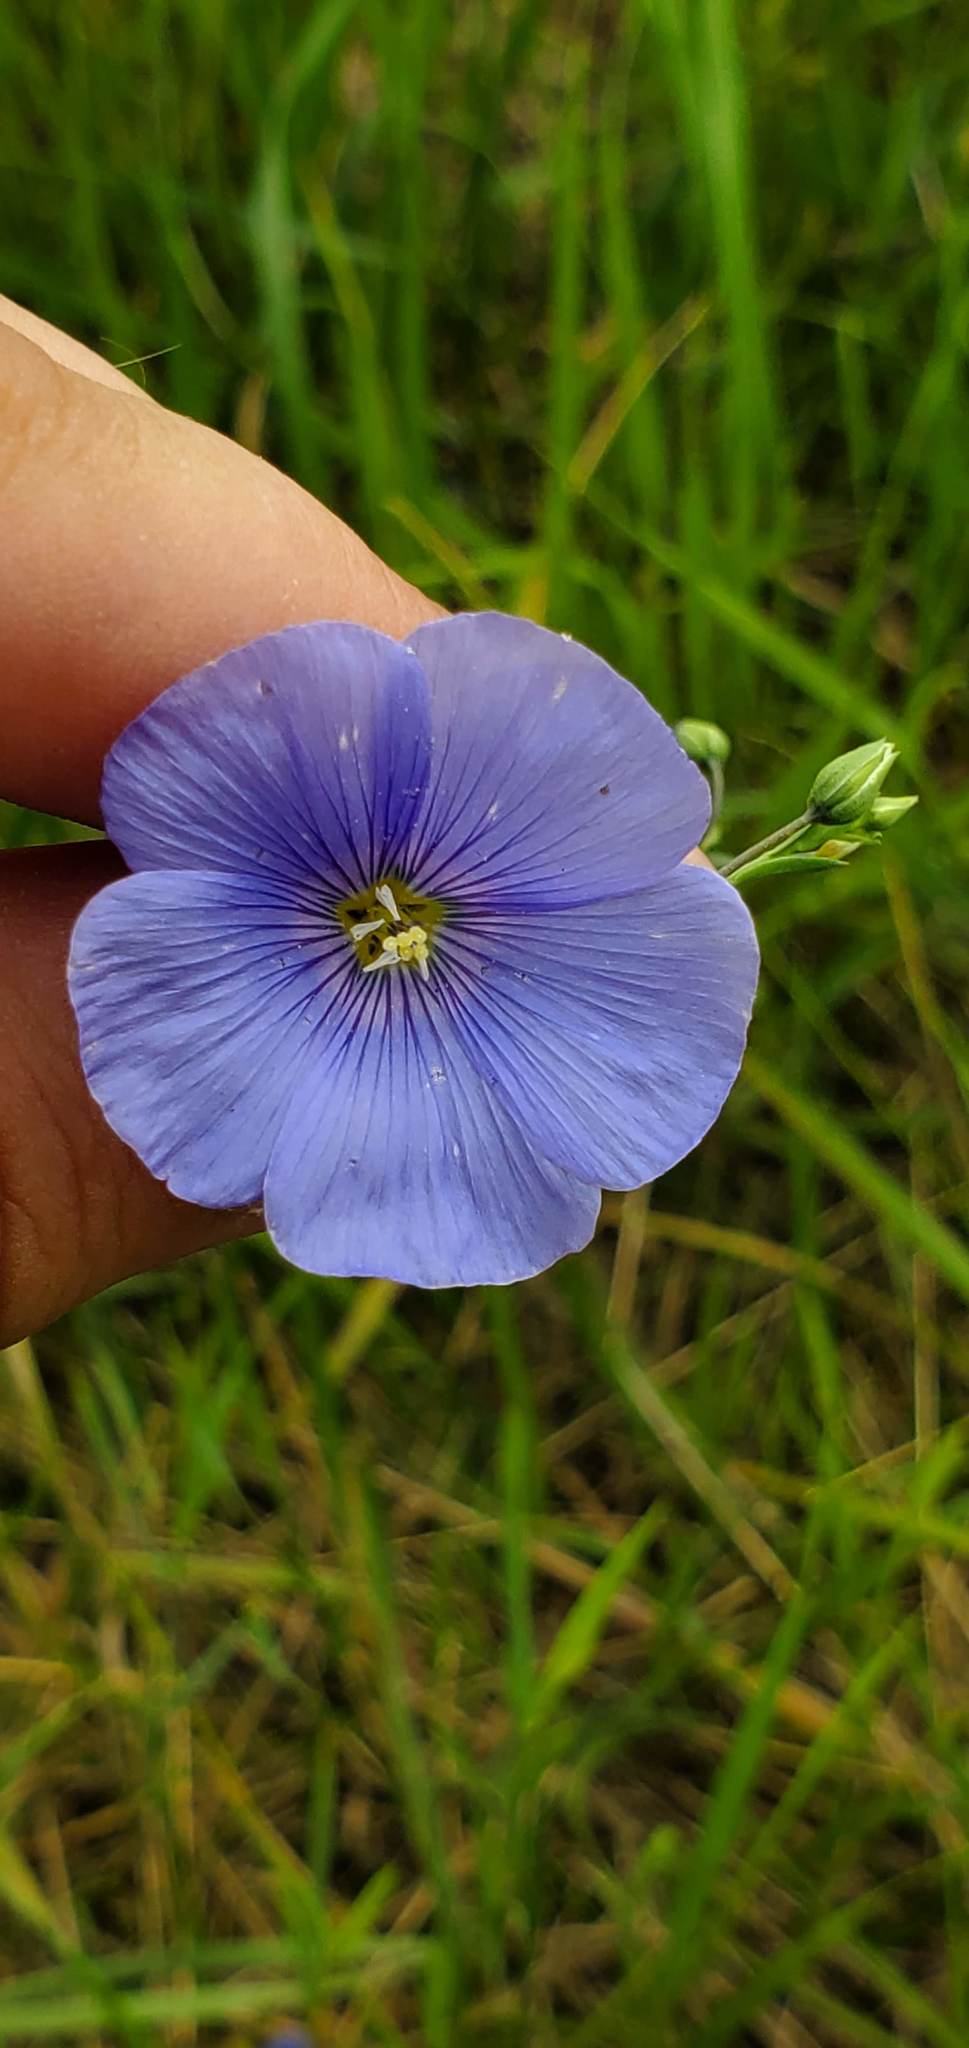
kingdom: Plantae
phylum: Tracheophyta
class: Magnoliopsida
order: Malpighiales
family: Linaceae
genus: Linum
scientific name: Linum lewisii
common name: Prairie flax
